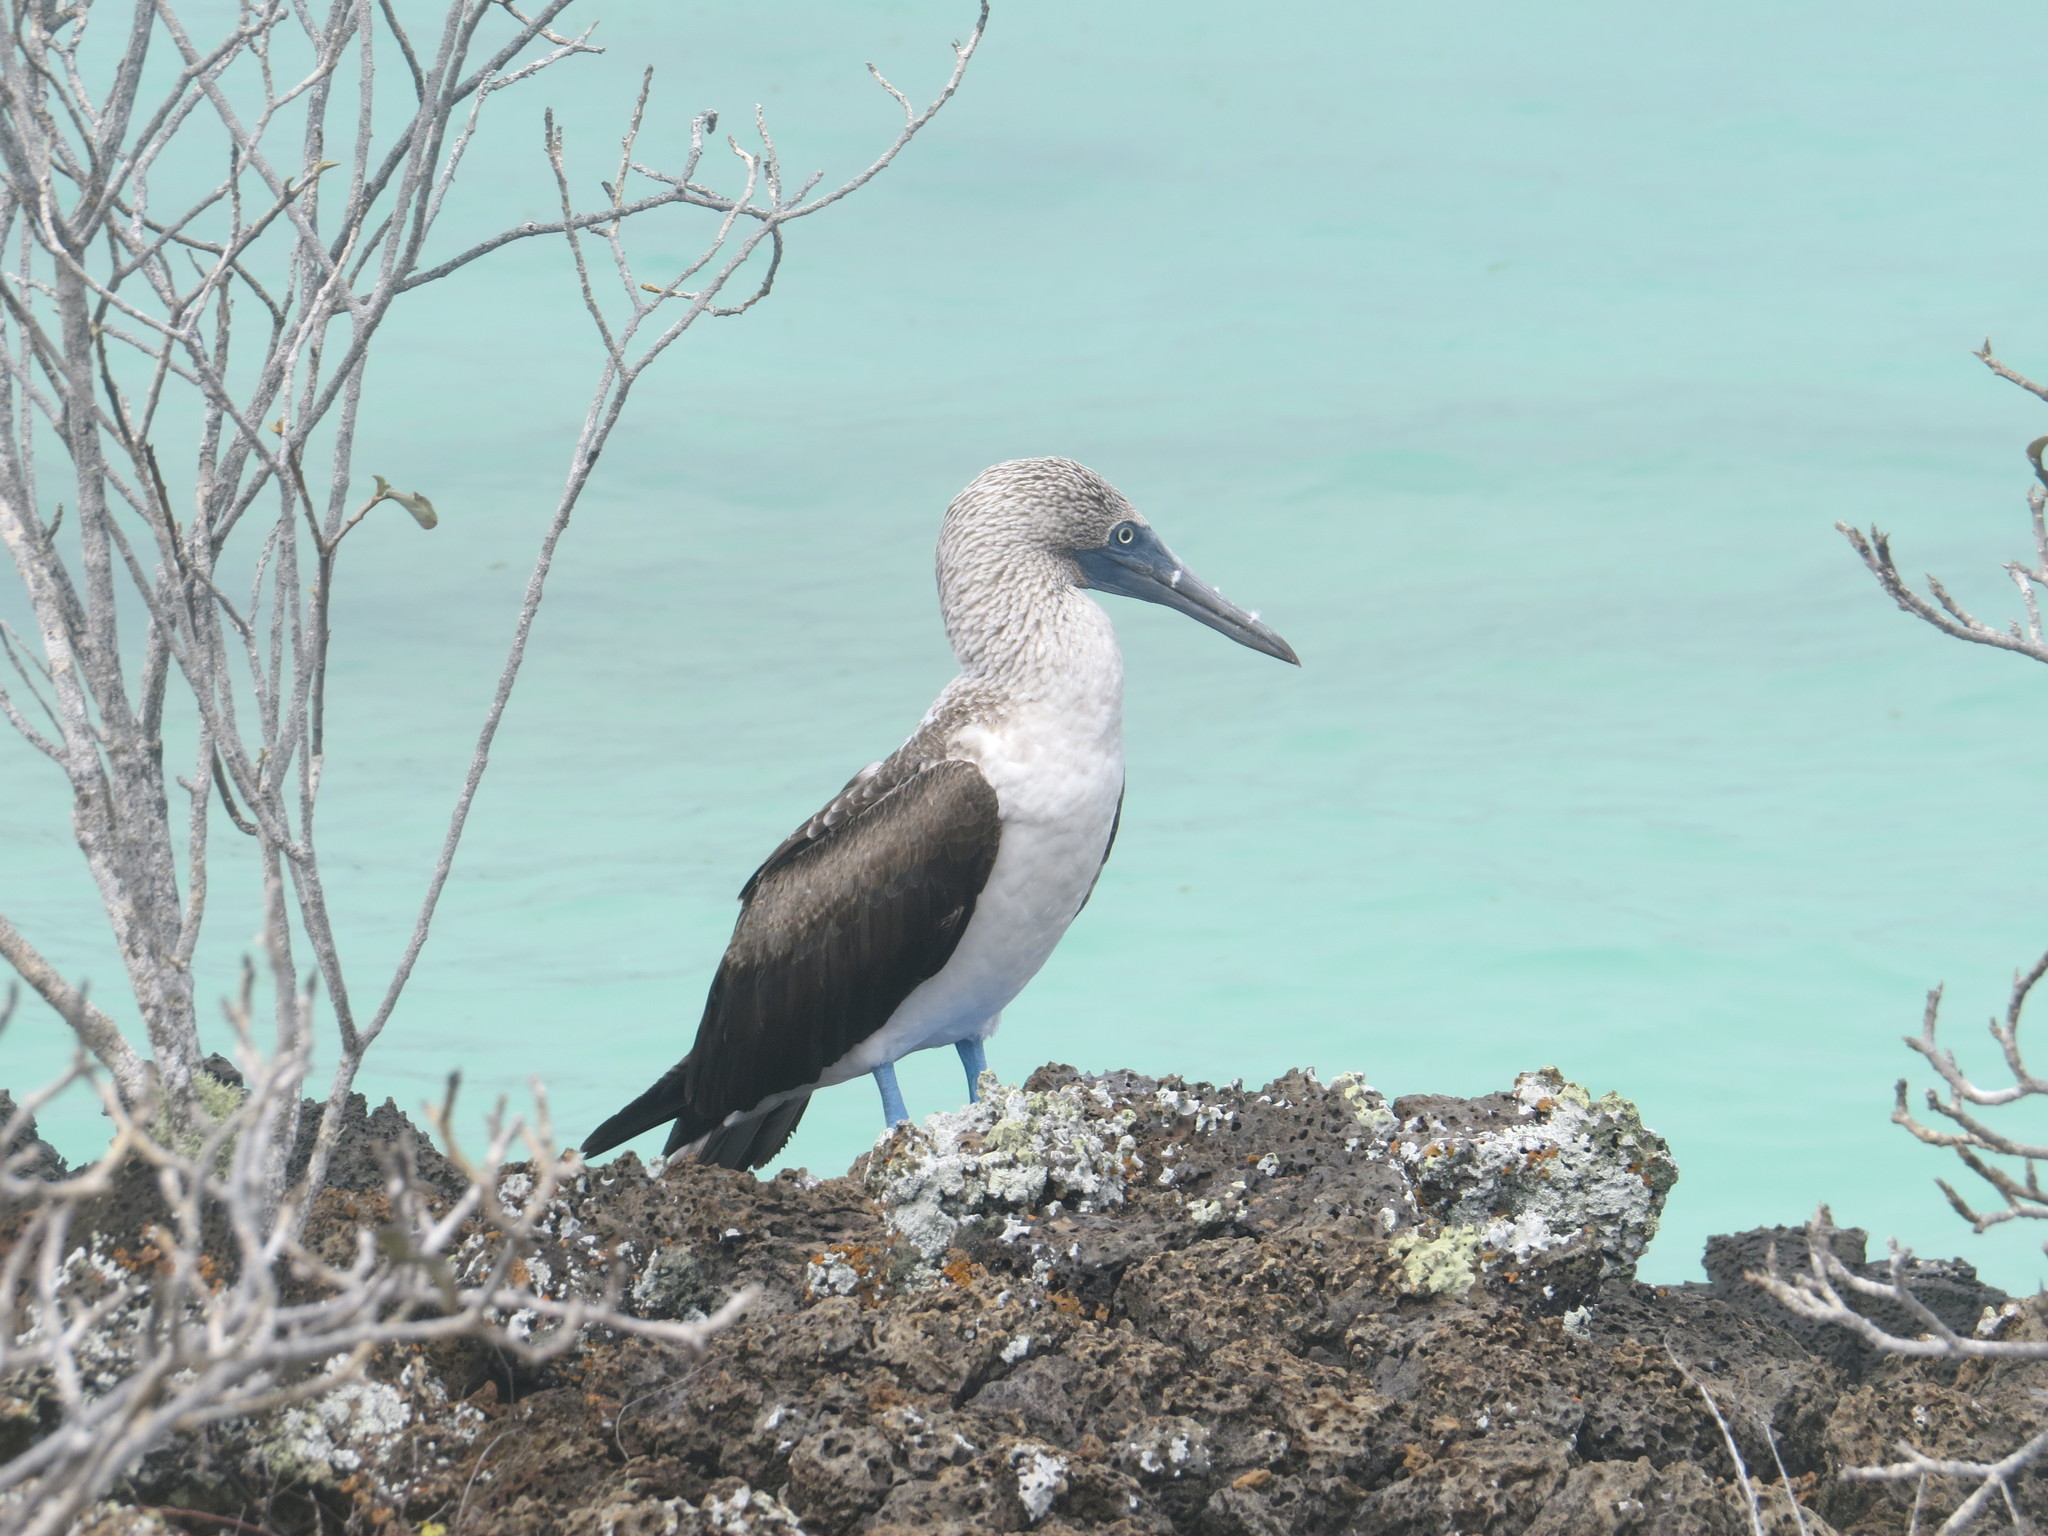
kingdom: Animalia
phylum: Chordata
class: Aves
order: Suliformes
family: Sulidae
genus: Sula
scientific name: Sula nebouxii
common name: Blue-footed booby
